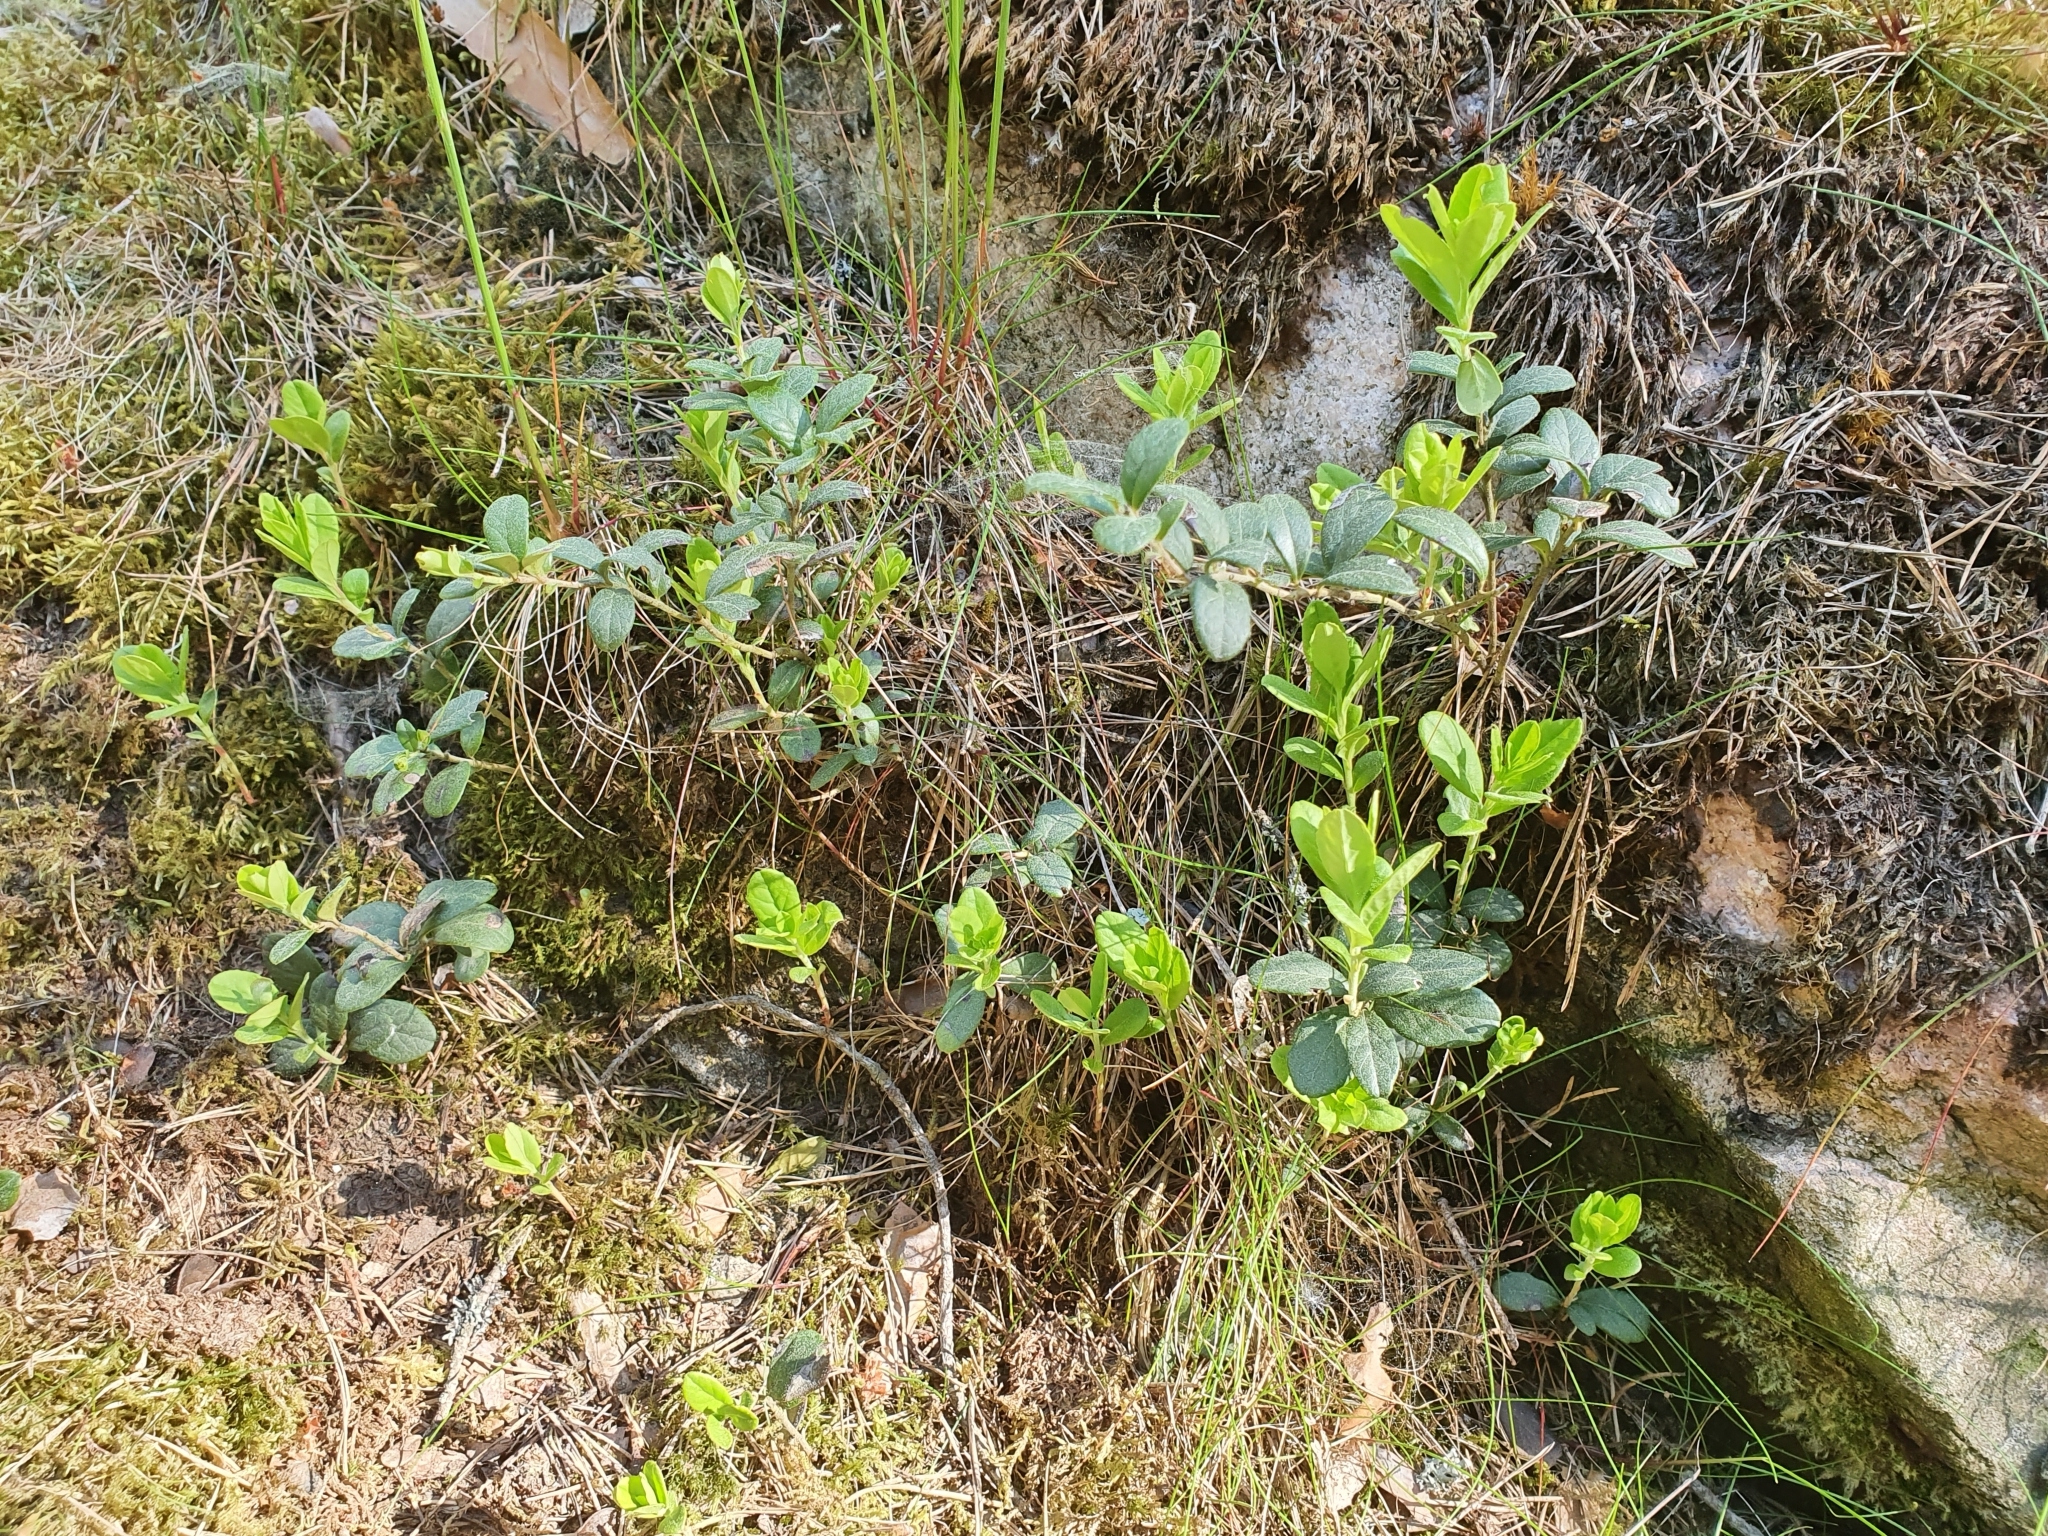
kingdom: Plantae
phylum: Tracheophyta
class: Magnoliopsida
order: Ericales
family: Ericaceae
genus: Vaccinium
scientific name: Vaccinium vitis-idaea
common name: Cowberry
